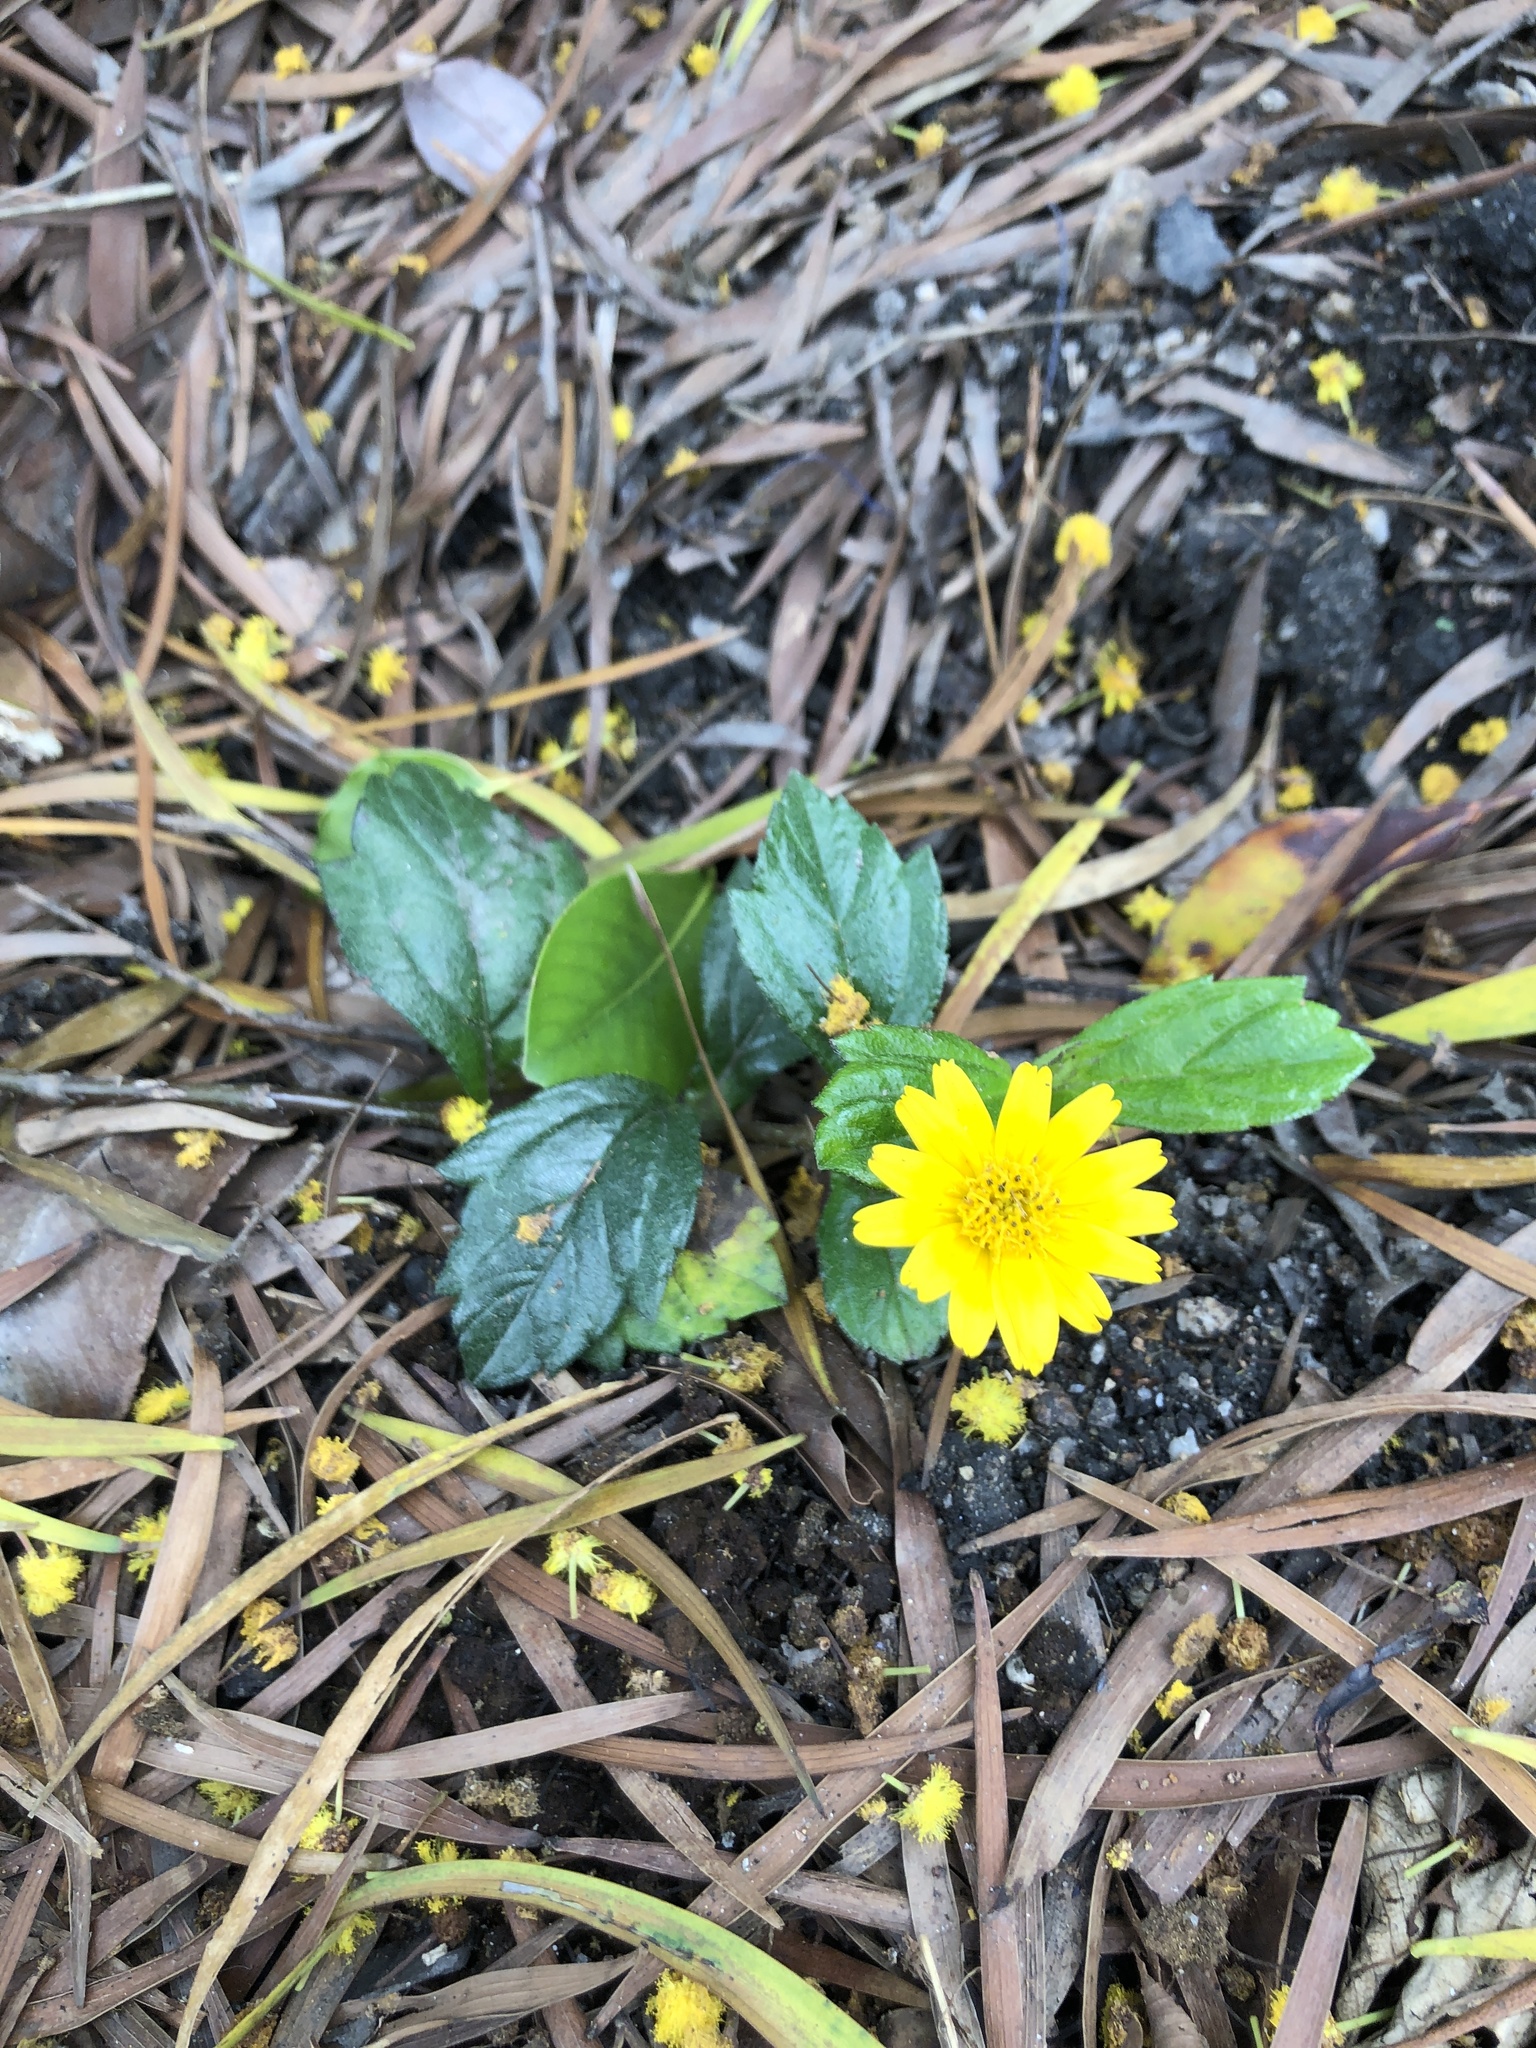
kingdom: Plantae
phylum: Tracheophyta
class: Magnoliopsida
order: Asterales
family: Asteraceae
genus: Sphagneticola
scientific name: Sphagneticola trilobata
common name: Bay biscayne creeping-oxeye
